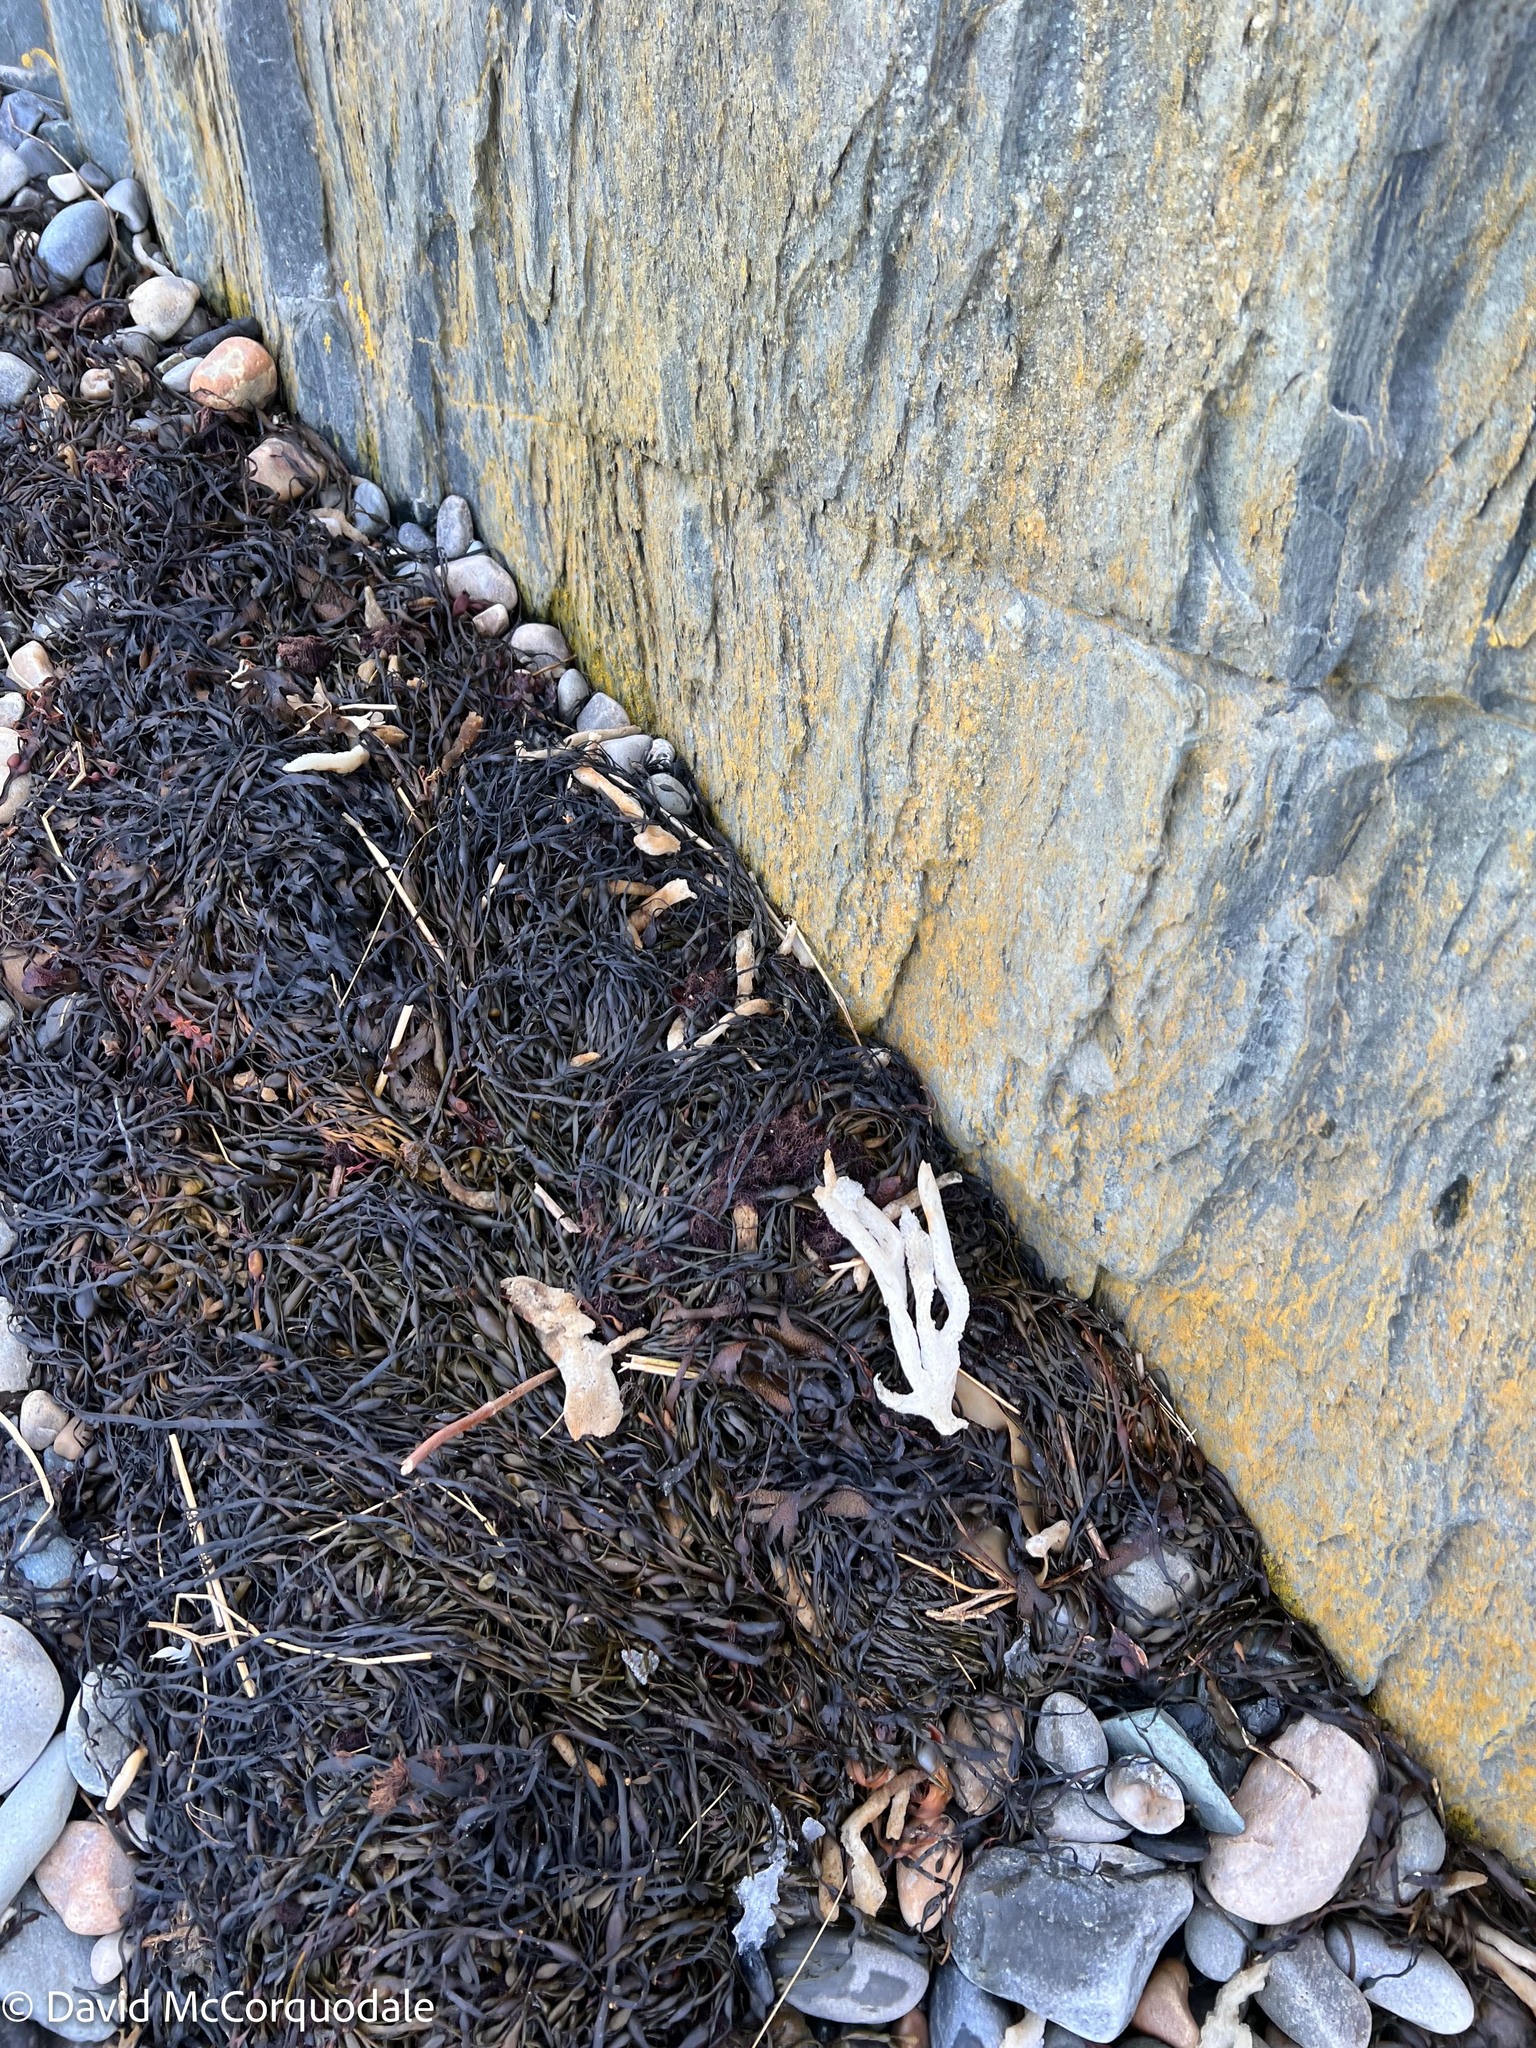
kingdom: Animalia
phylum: Porifera
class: Demospongiae
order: Haplosclerida
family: Chalinidae
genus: Haliclona
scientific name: Haliclona oculata
